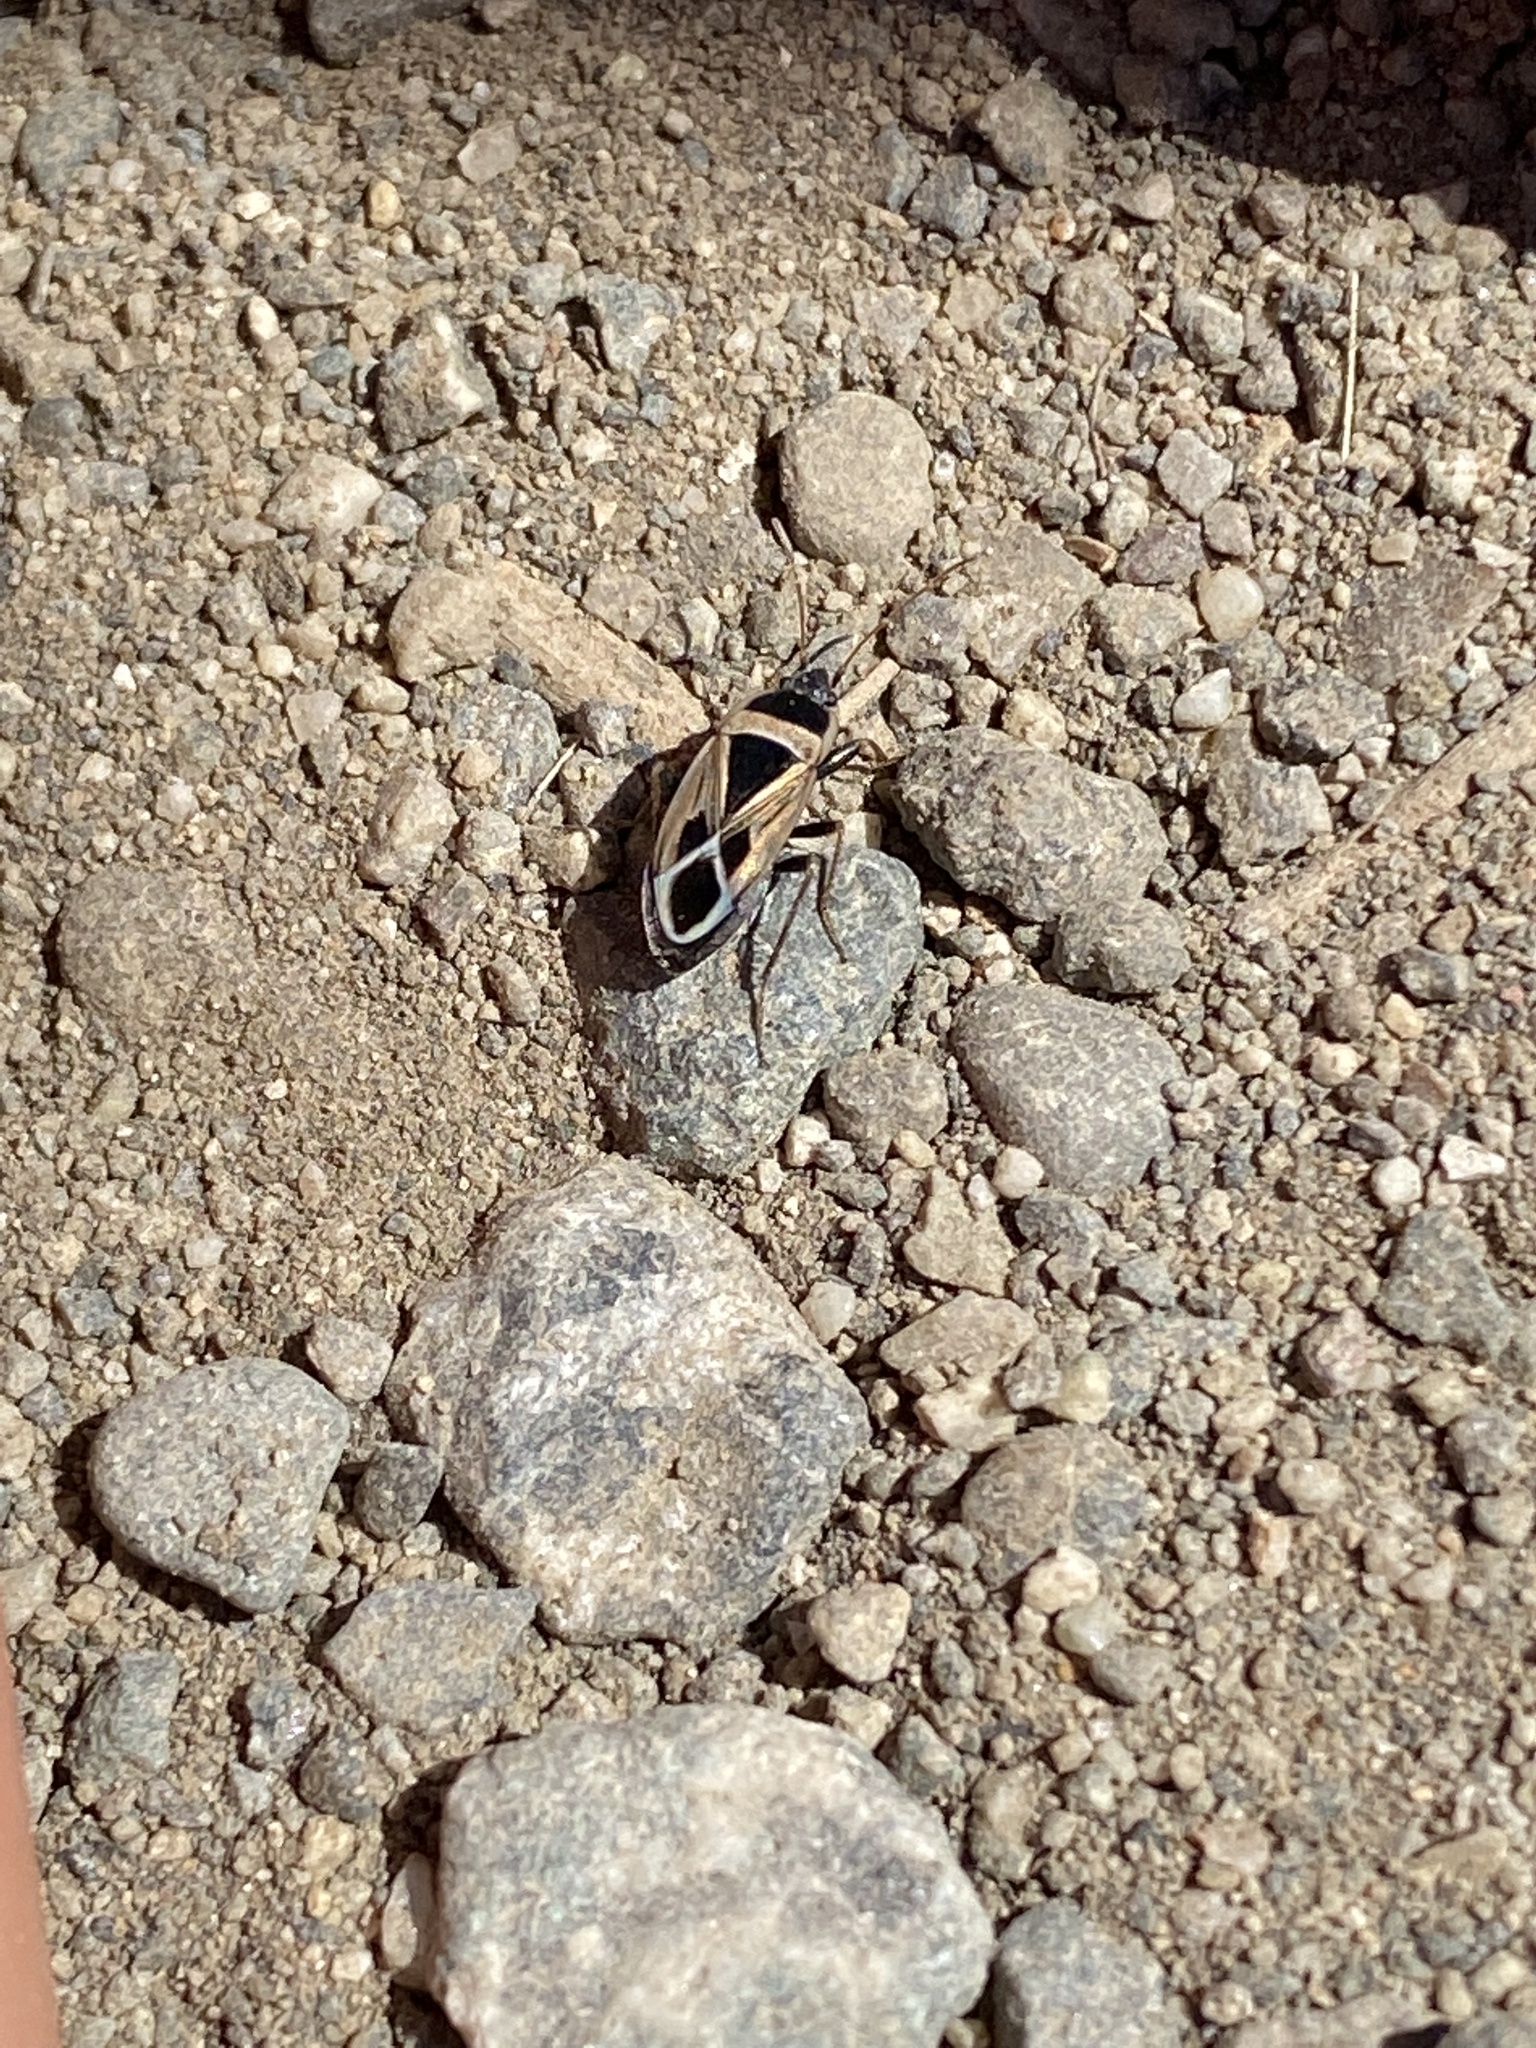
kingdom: Animalia
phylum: Arthropoda
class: Insecta
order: Hemiptera
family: Rhyparochromidae
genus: Xanthochilus
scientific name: Xanthochilus saturnius
